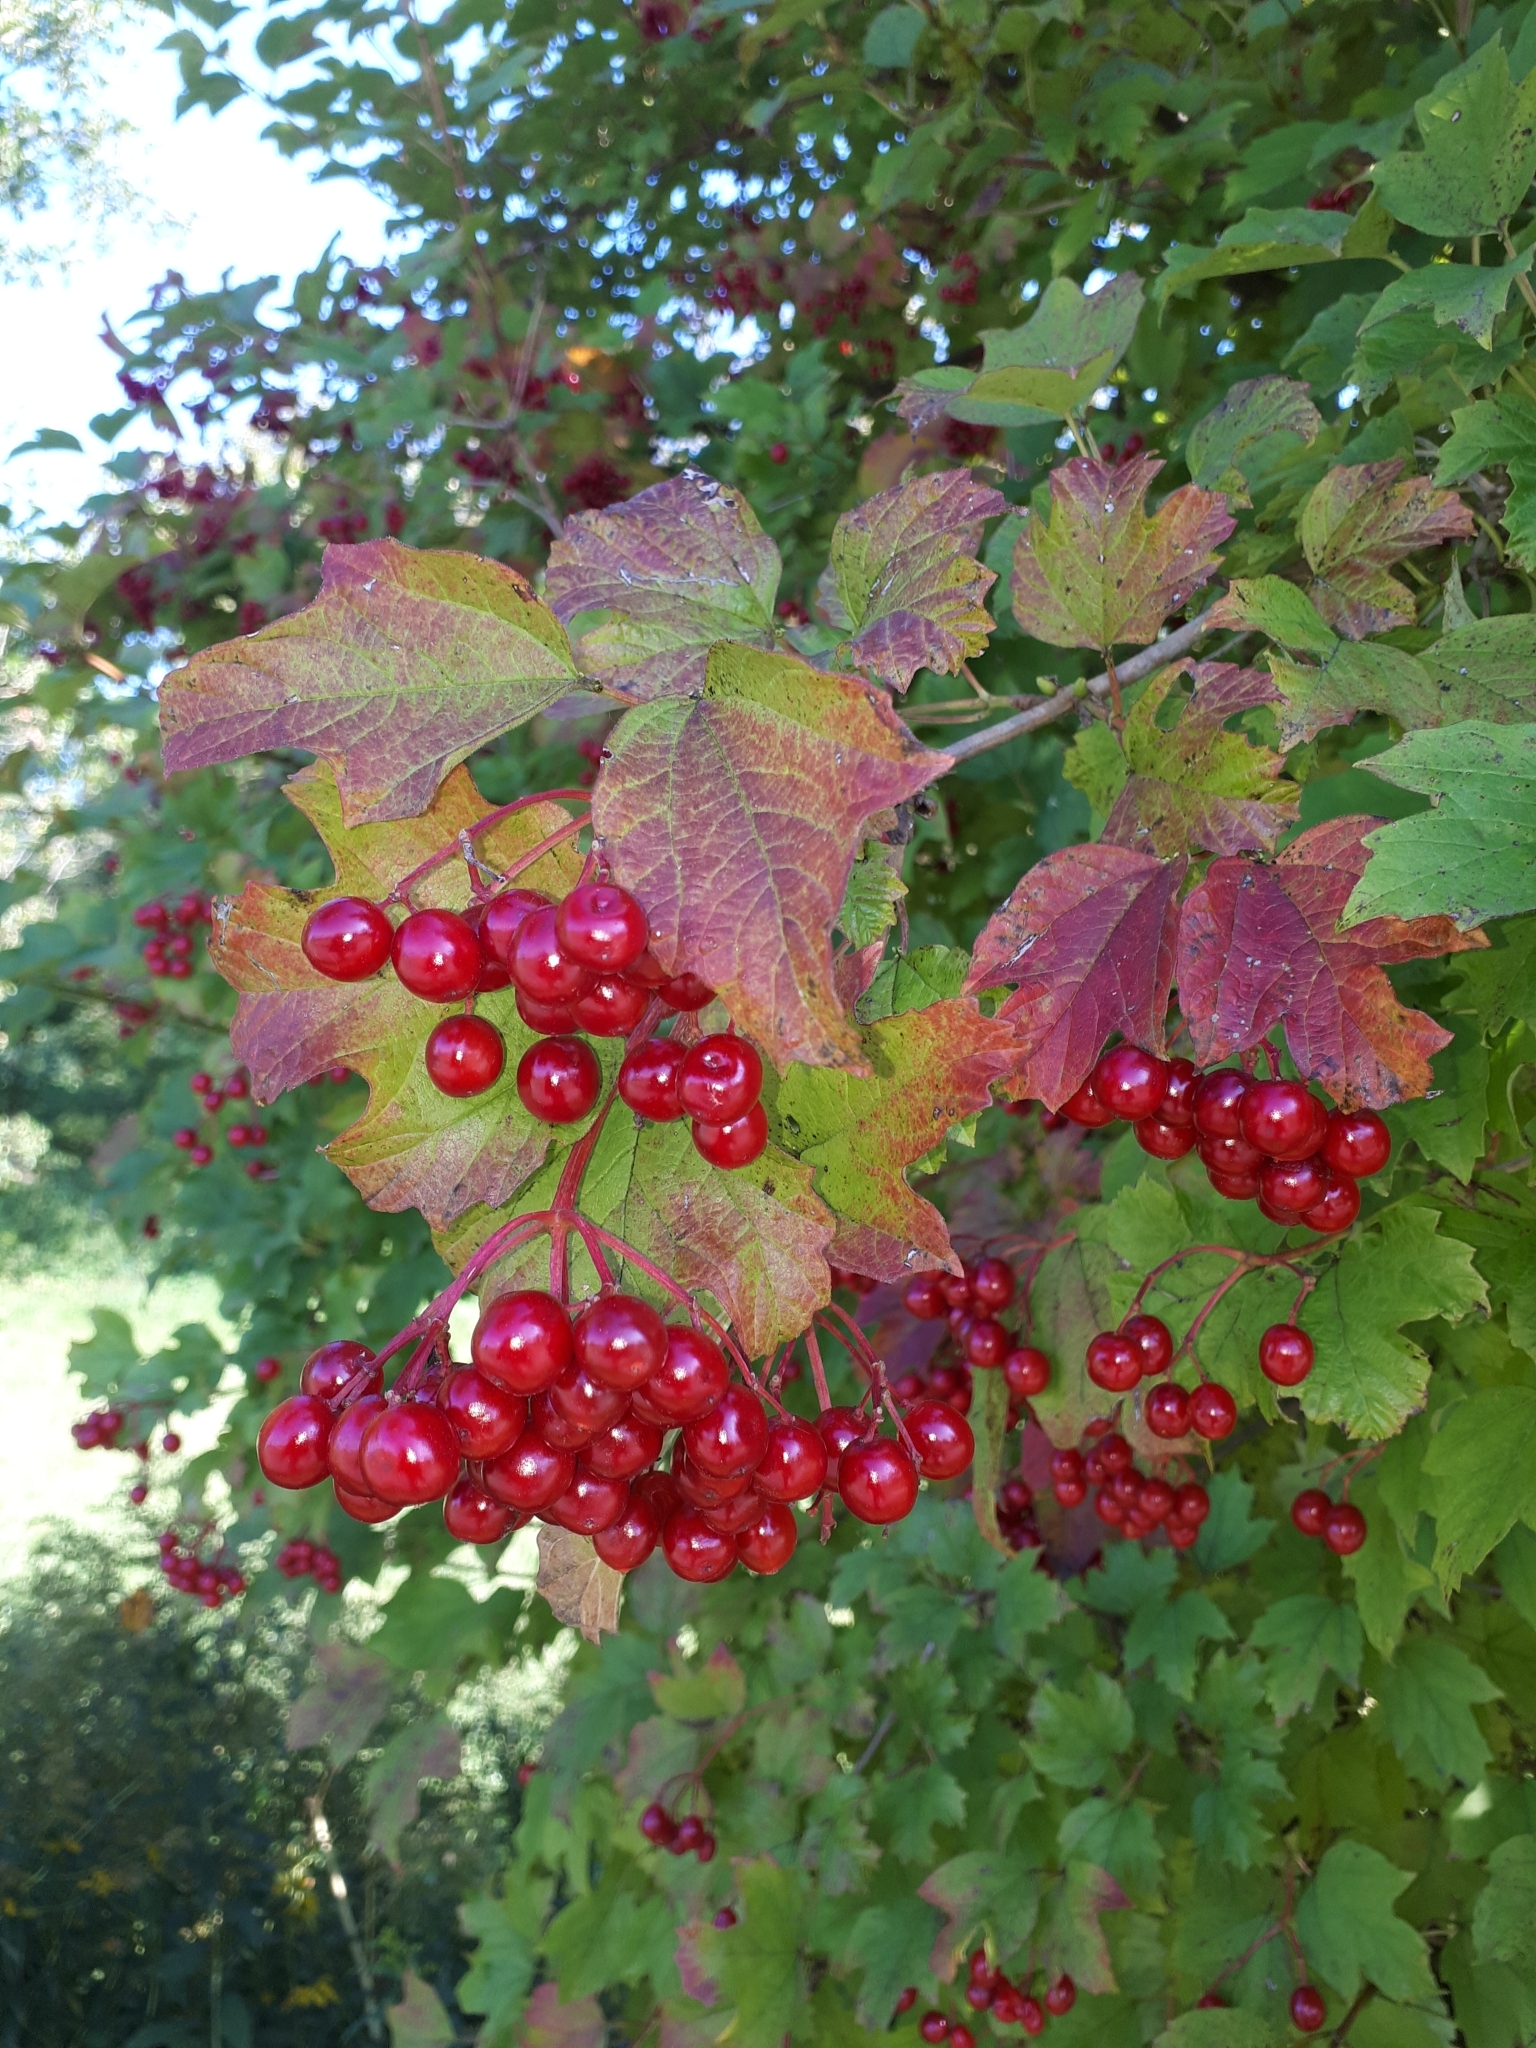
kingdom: Plantae
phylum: Tracheophyta
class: Magnoliopsida
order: Dipsacales
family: Viburnaceae
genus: Viburnum
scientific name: Viburnum opulus
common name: Guelder-rose
